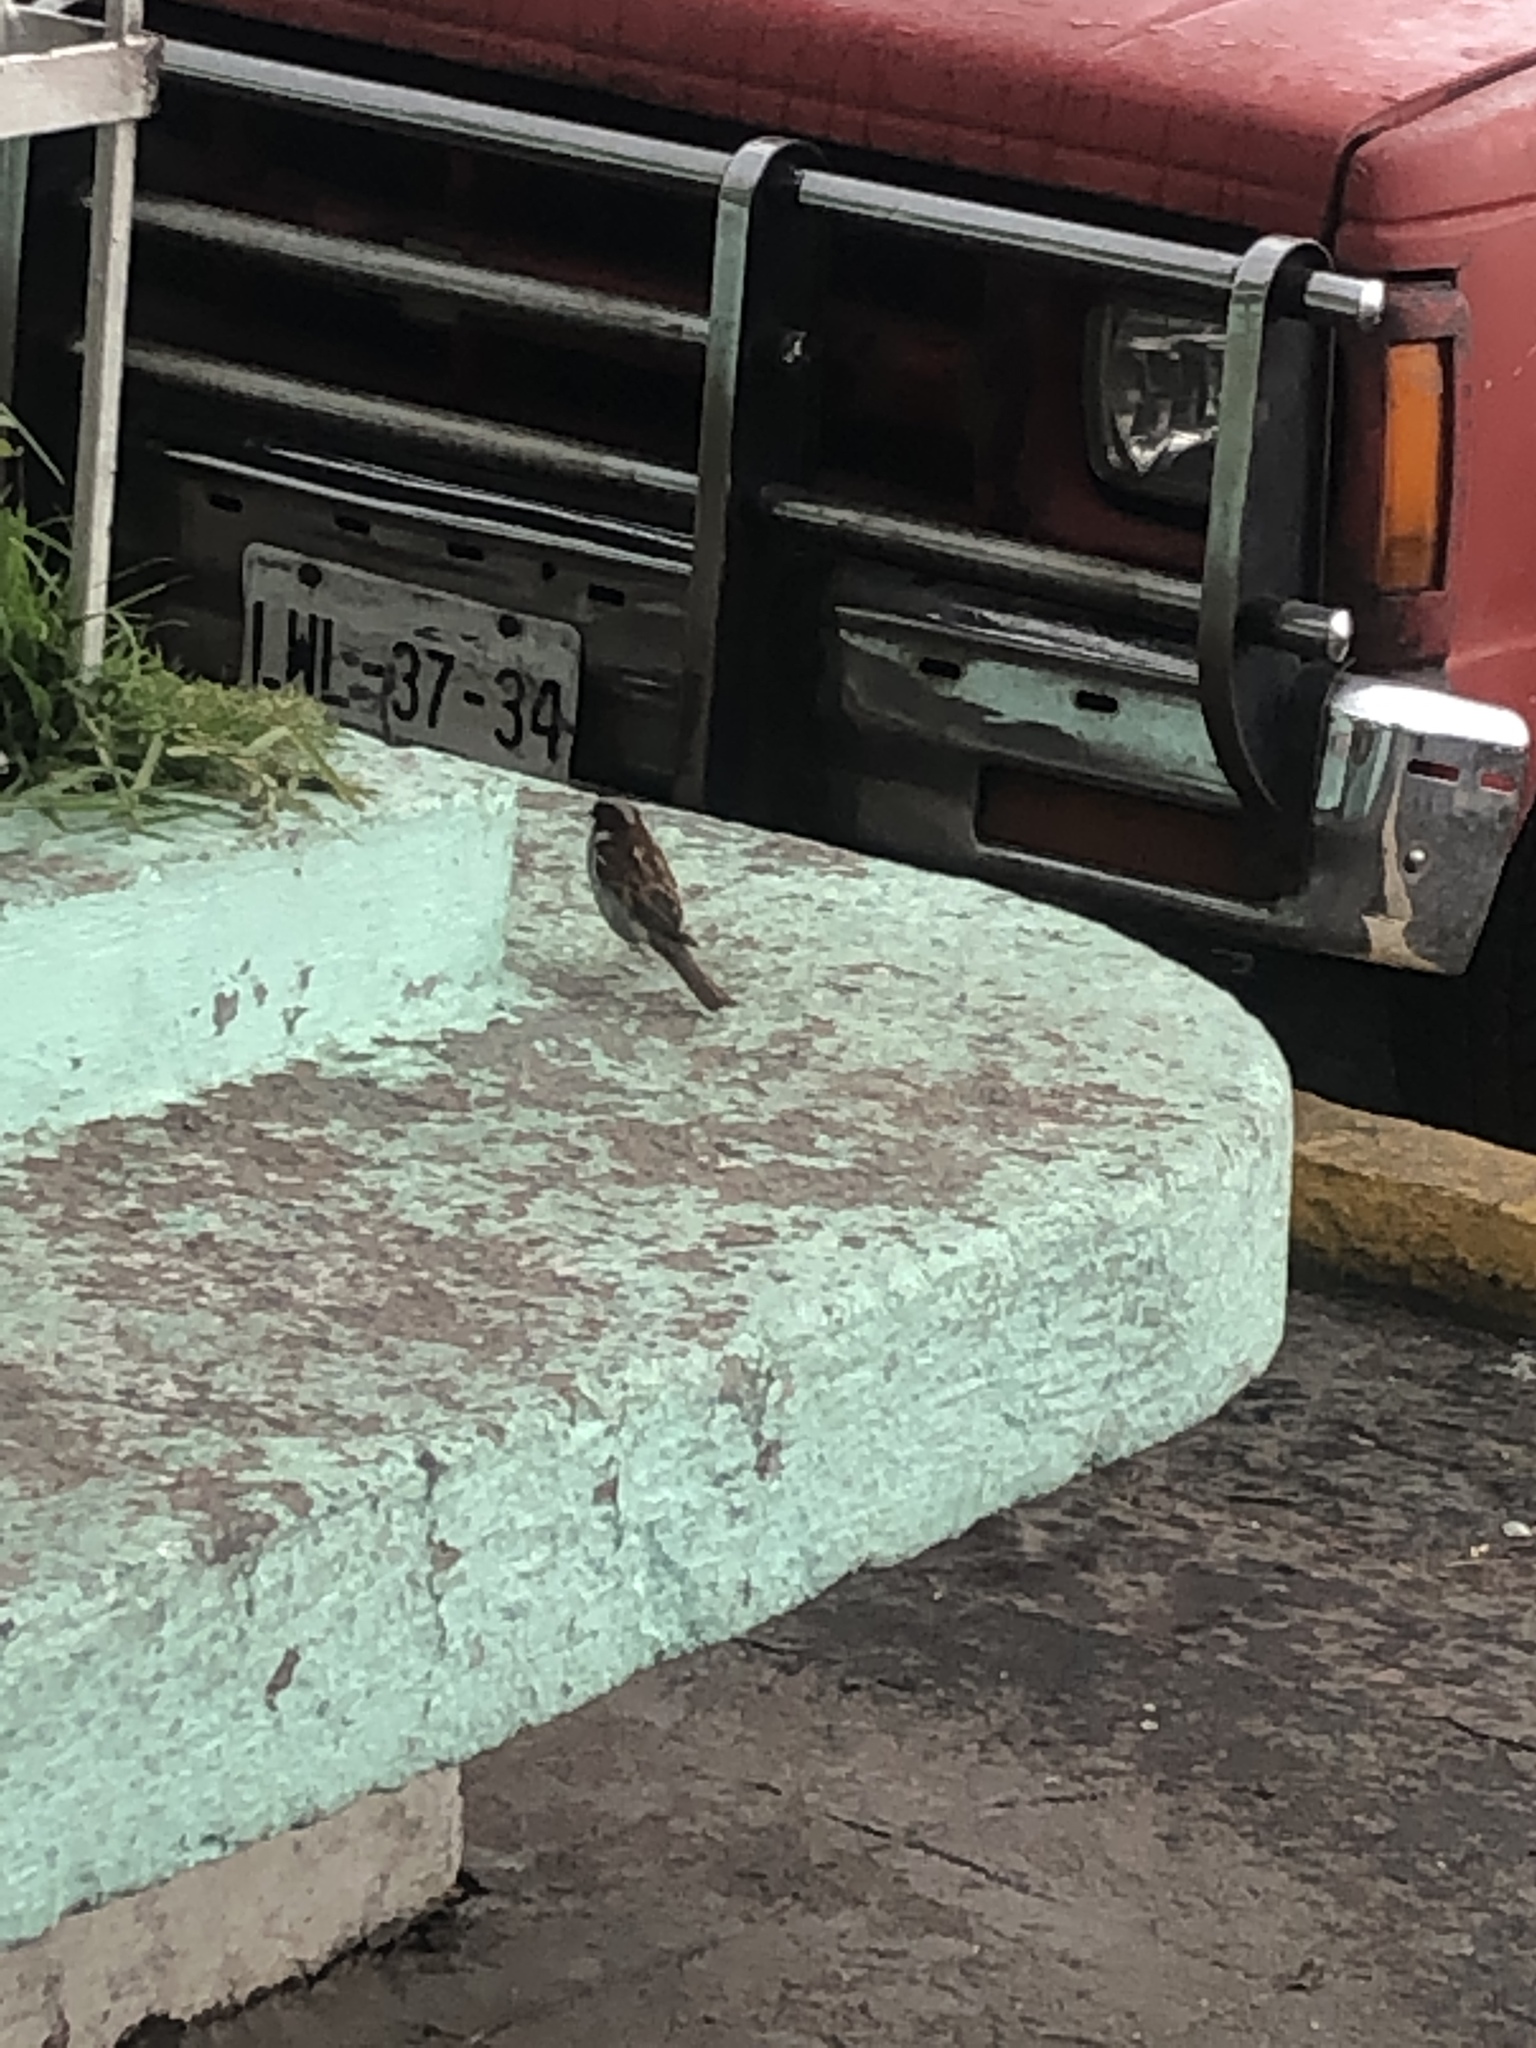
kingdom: Animalia
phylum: Chordata
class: Aves
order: Passeriformes
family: Passeridae
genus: Passer
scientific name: Passer domesticus
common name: House sparrow
